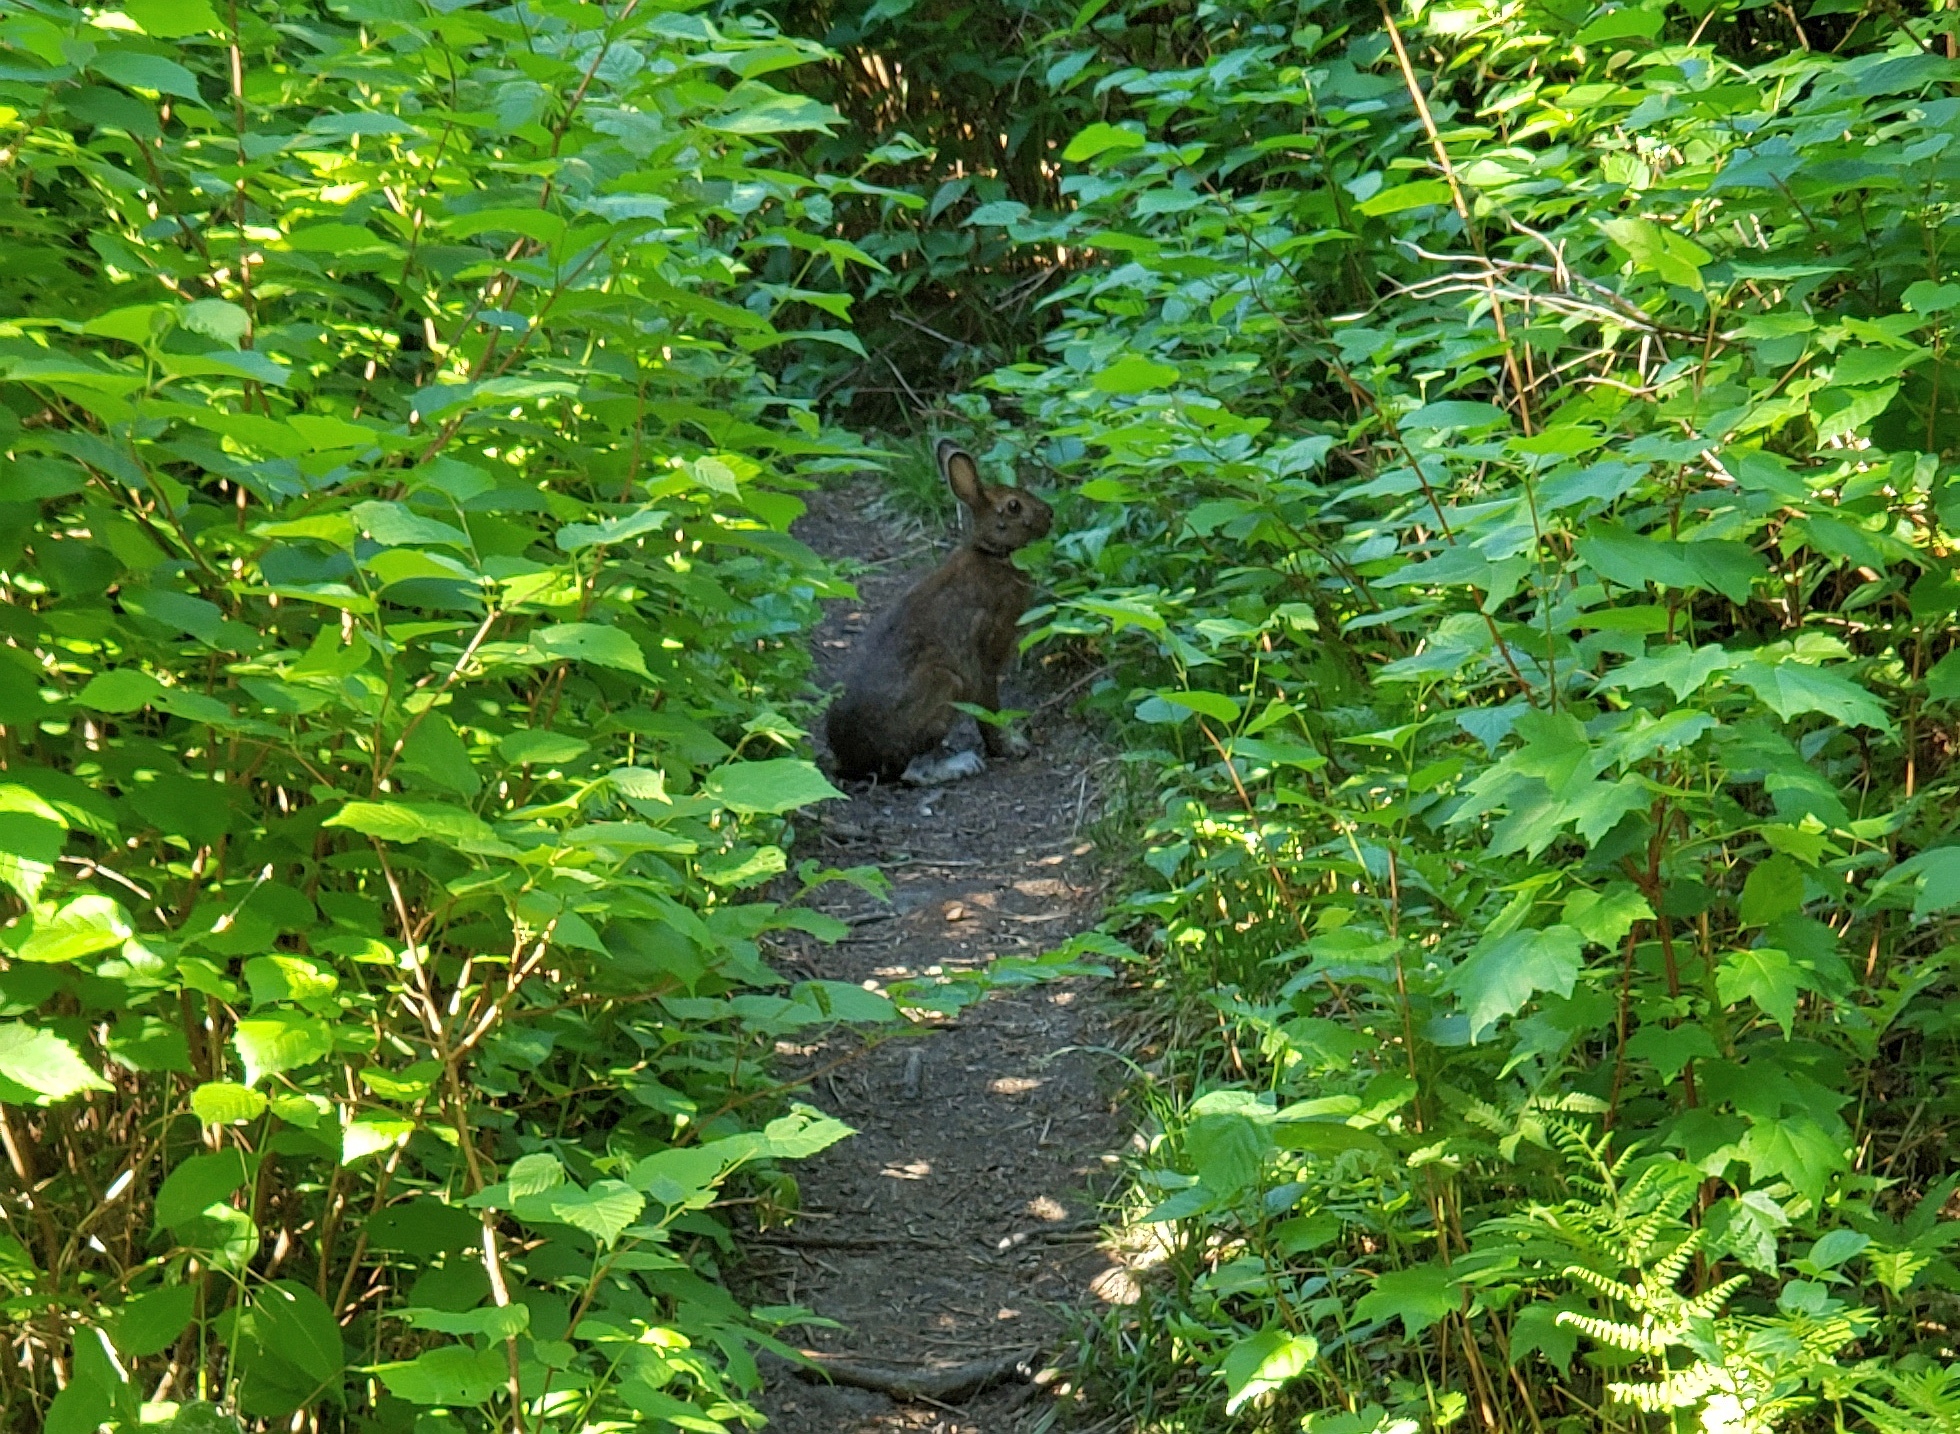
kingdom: Animalia
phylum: Chordata
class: Mammalia
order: Lagomorpha
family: Leporidae
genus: Lepus
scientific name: Lepus americanus
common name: Snowshoe hare
